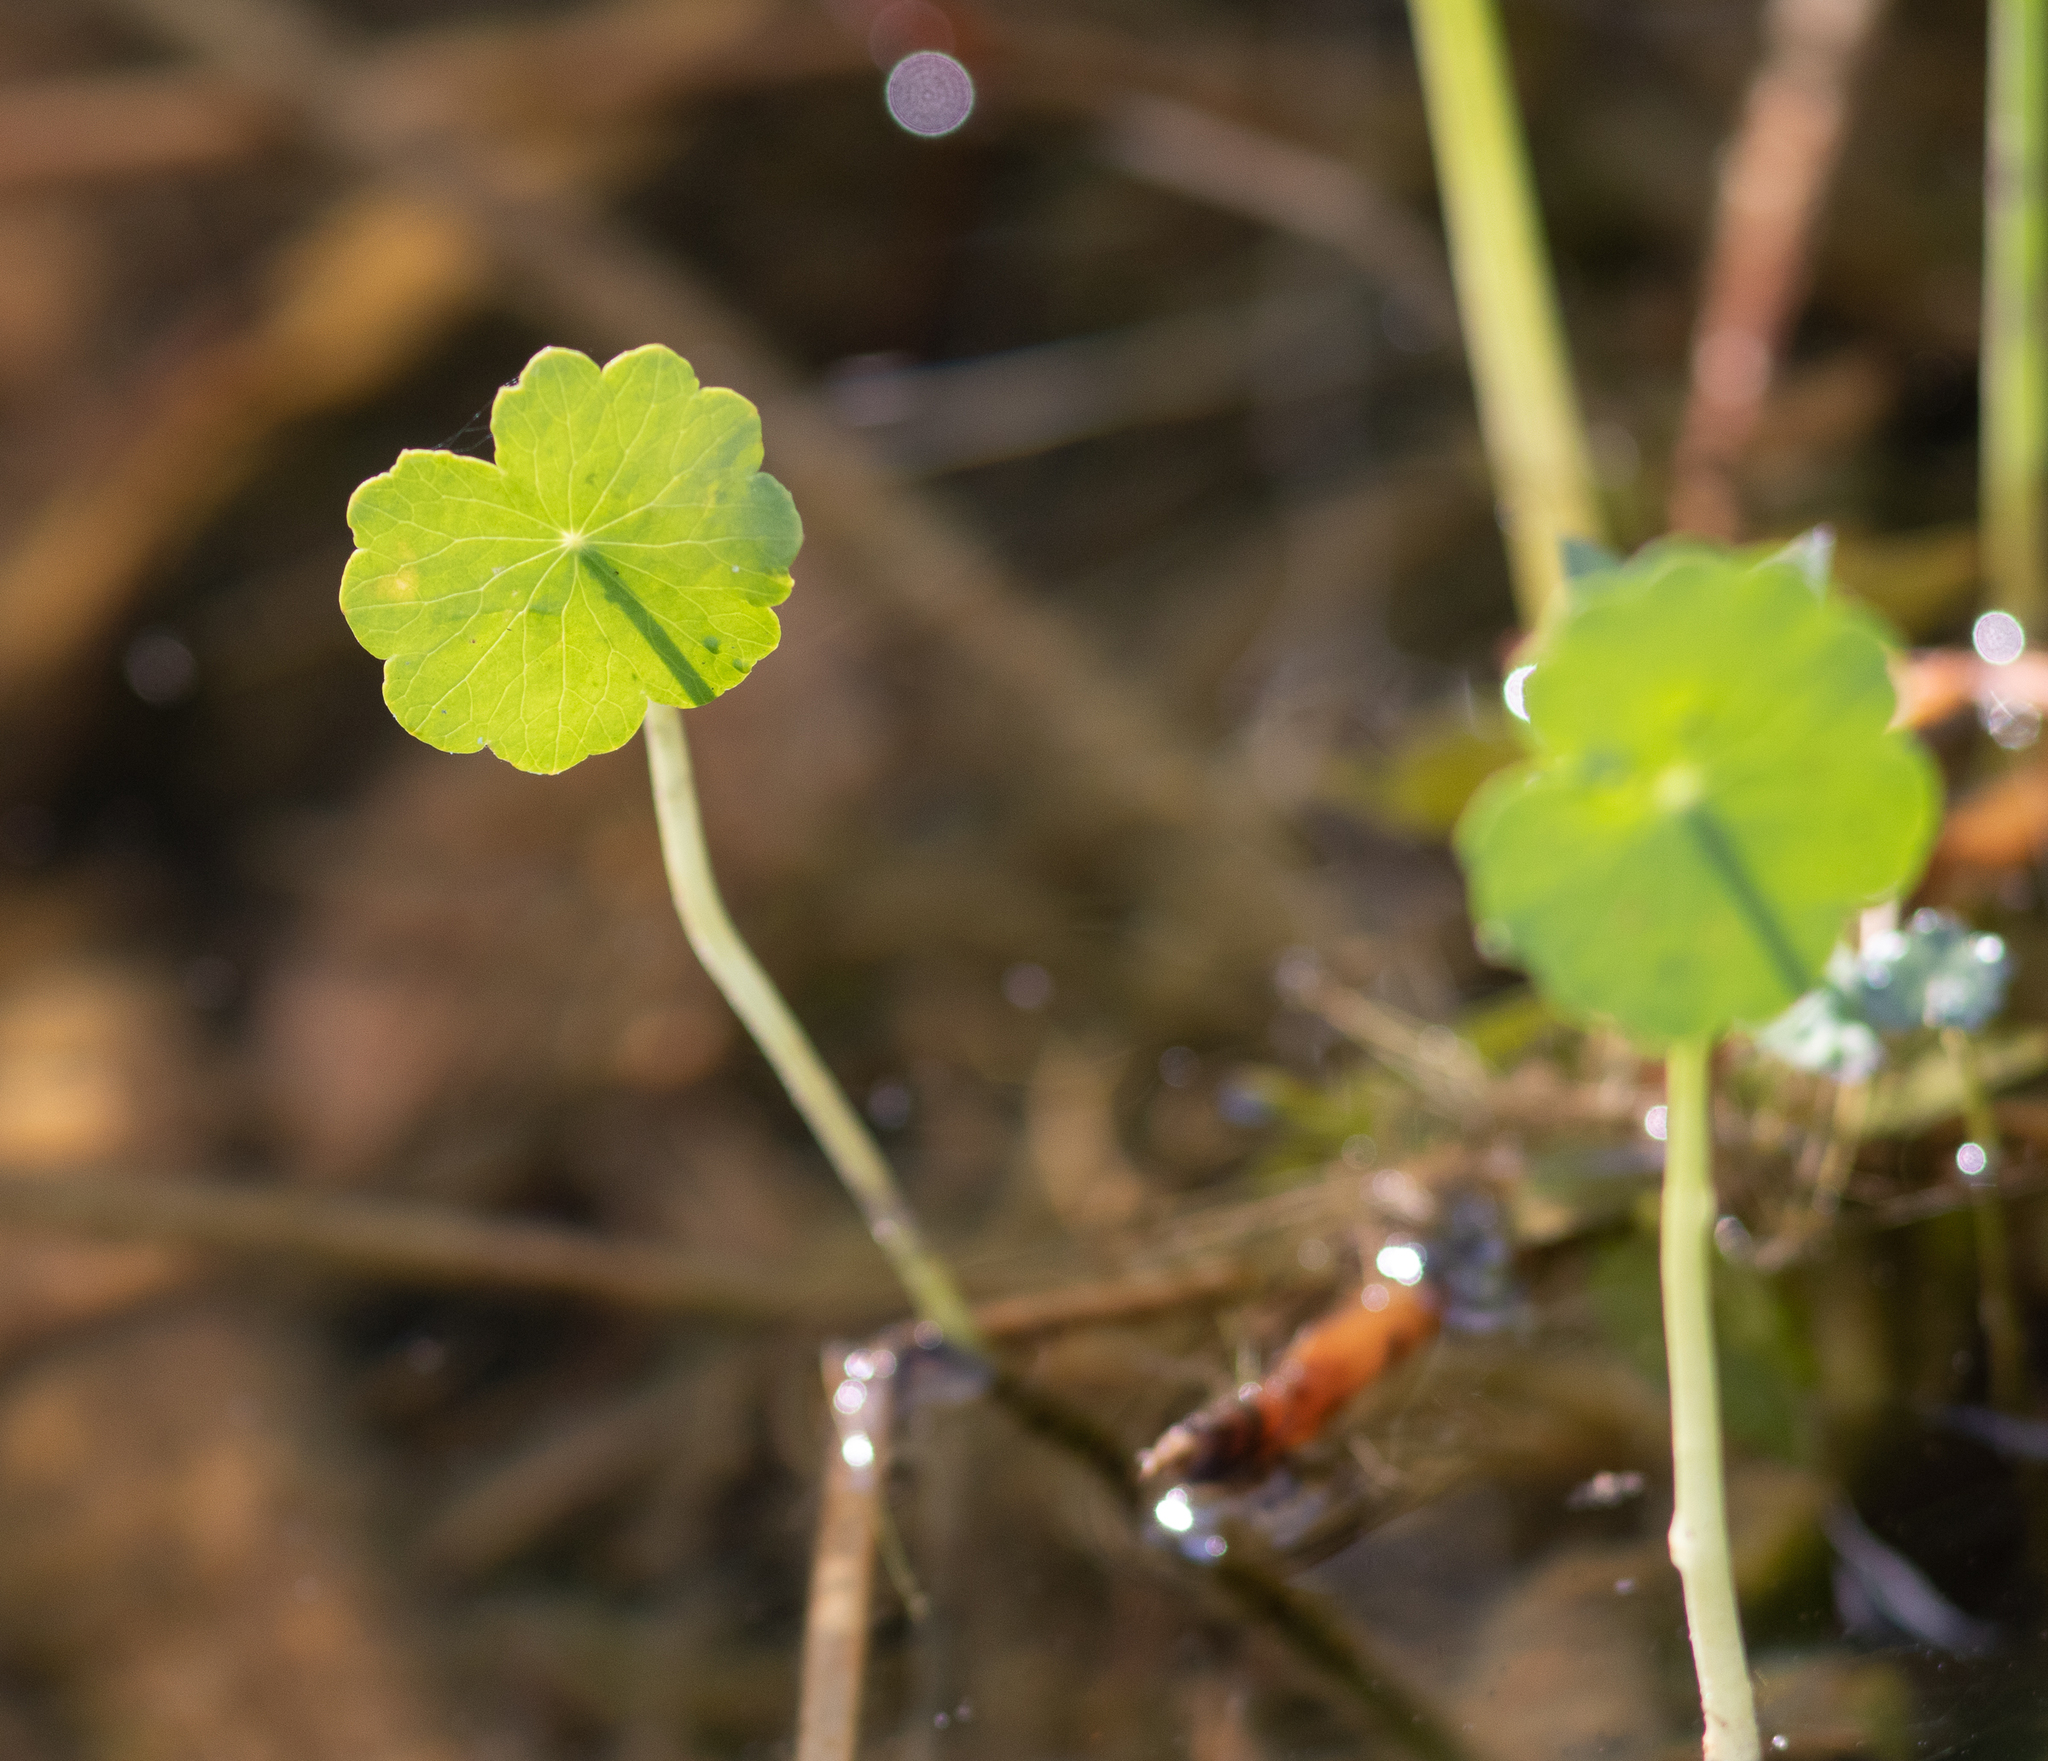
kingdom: Plantae
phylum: Tracheophyta
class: Magnoliopsida
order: Apiales
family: Araliaceae
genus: Hydrocotyle
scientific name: Hydrocotyle
